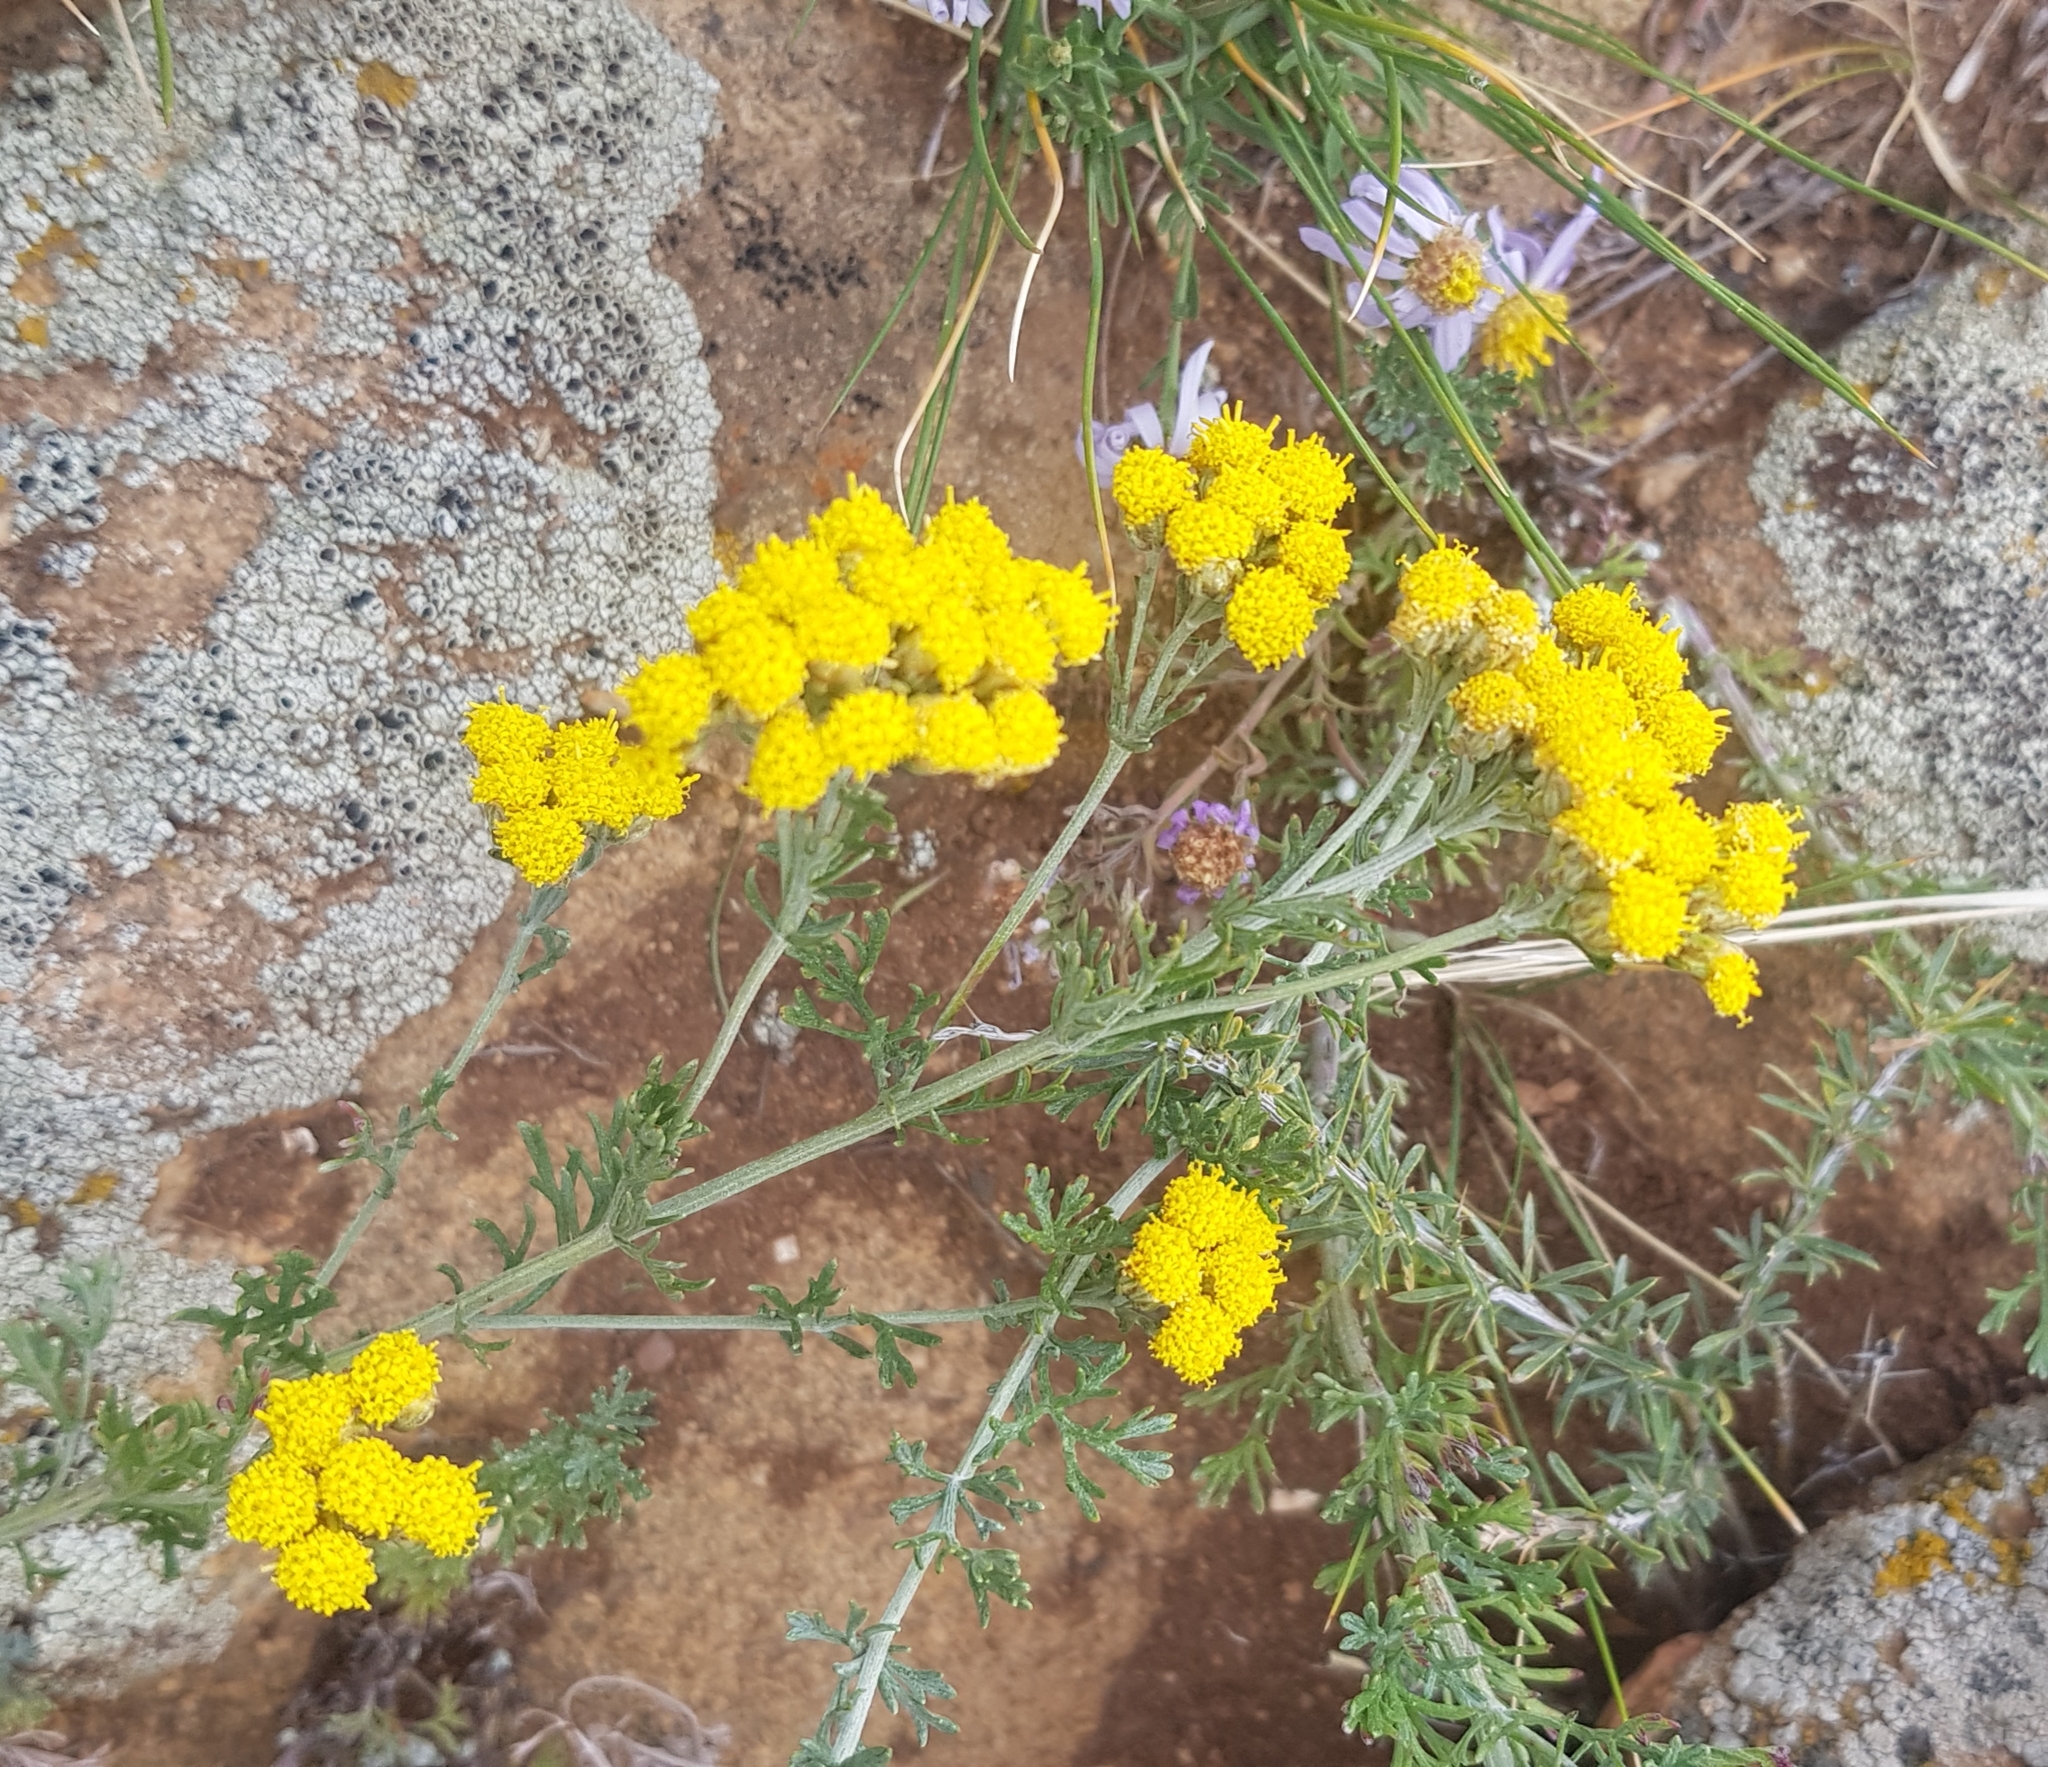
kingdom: Plantae
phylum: Tracheophyta
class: Magnoliopsida
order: Asterales
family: Asteraceae
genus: Ajania
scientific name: Ajania fruticulosa
